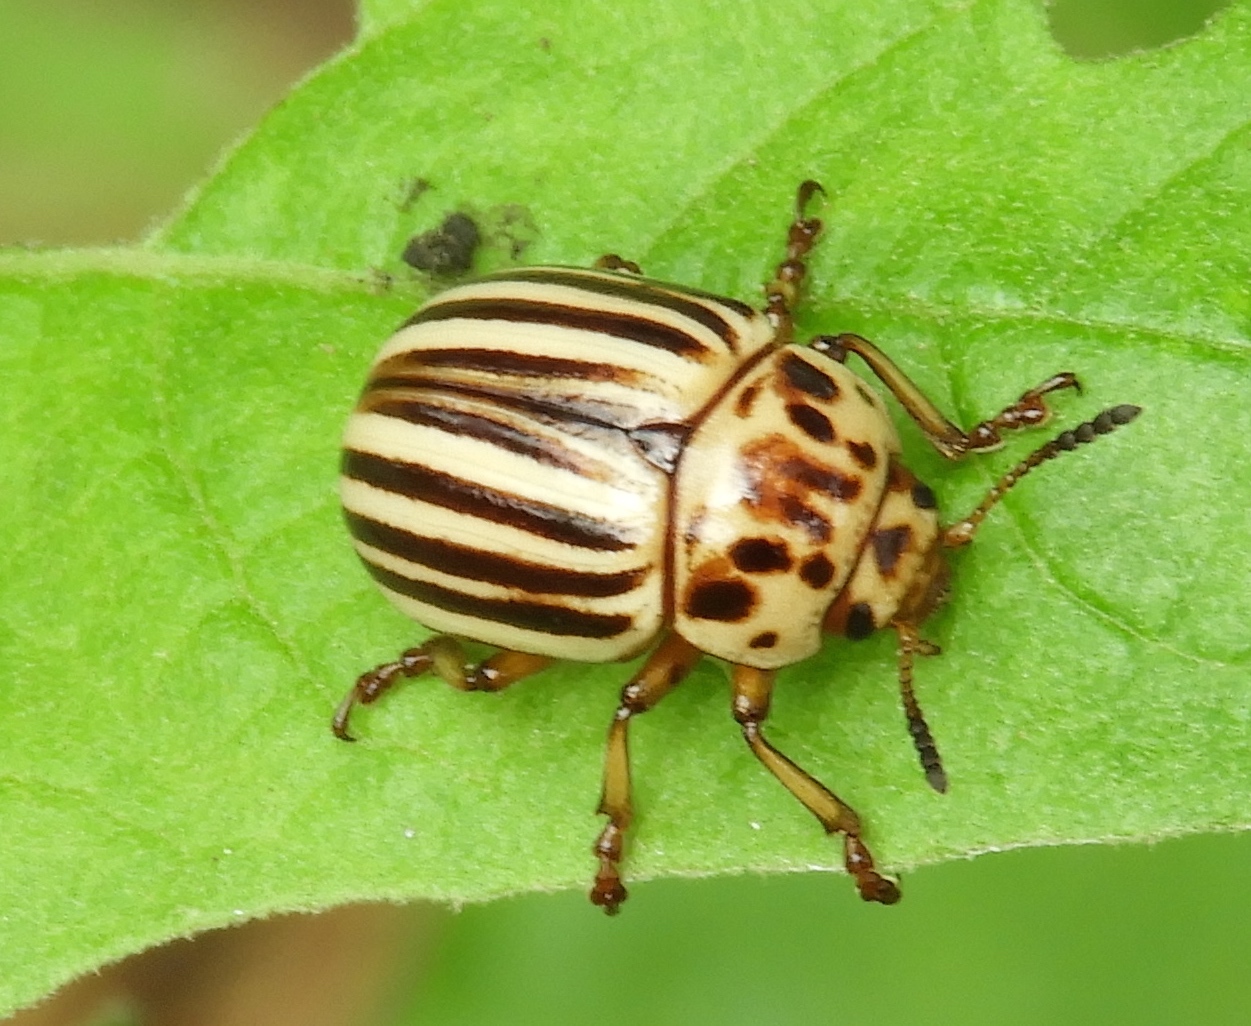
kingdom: Animalia
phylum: Arthropoda
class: Insecta
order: Coleoptera
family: Chrysomelidae
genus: Leptinotarsa
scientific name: Leptinotarsa decemlineata
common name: Colorado potato beetle
